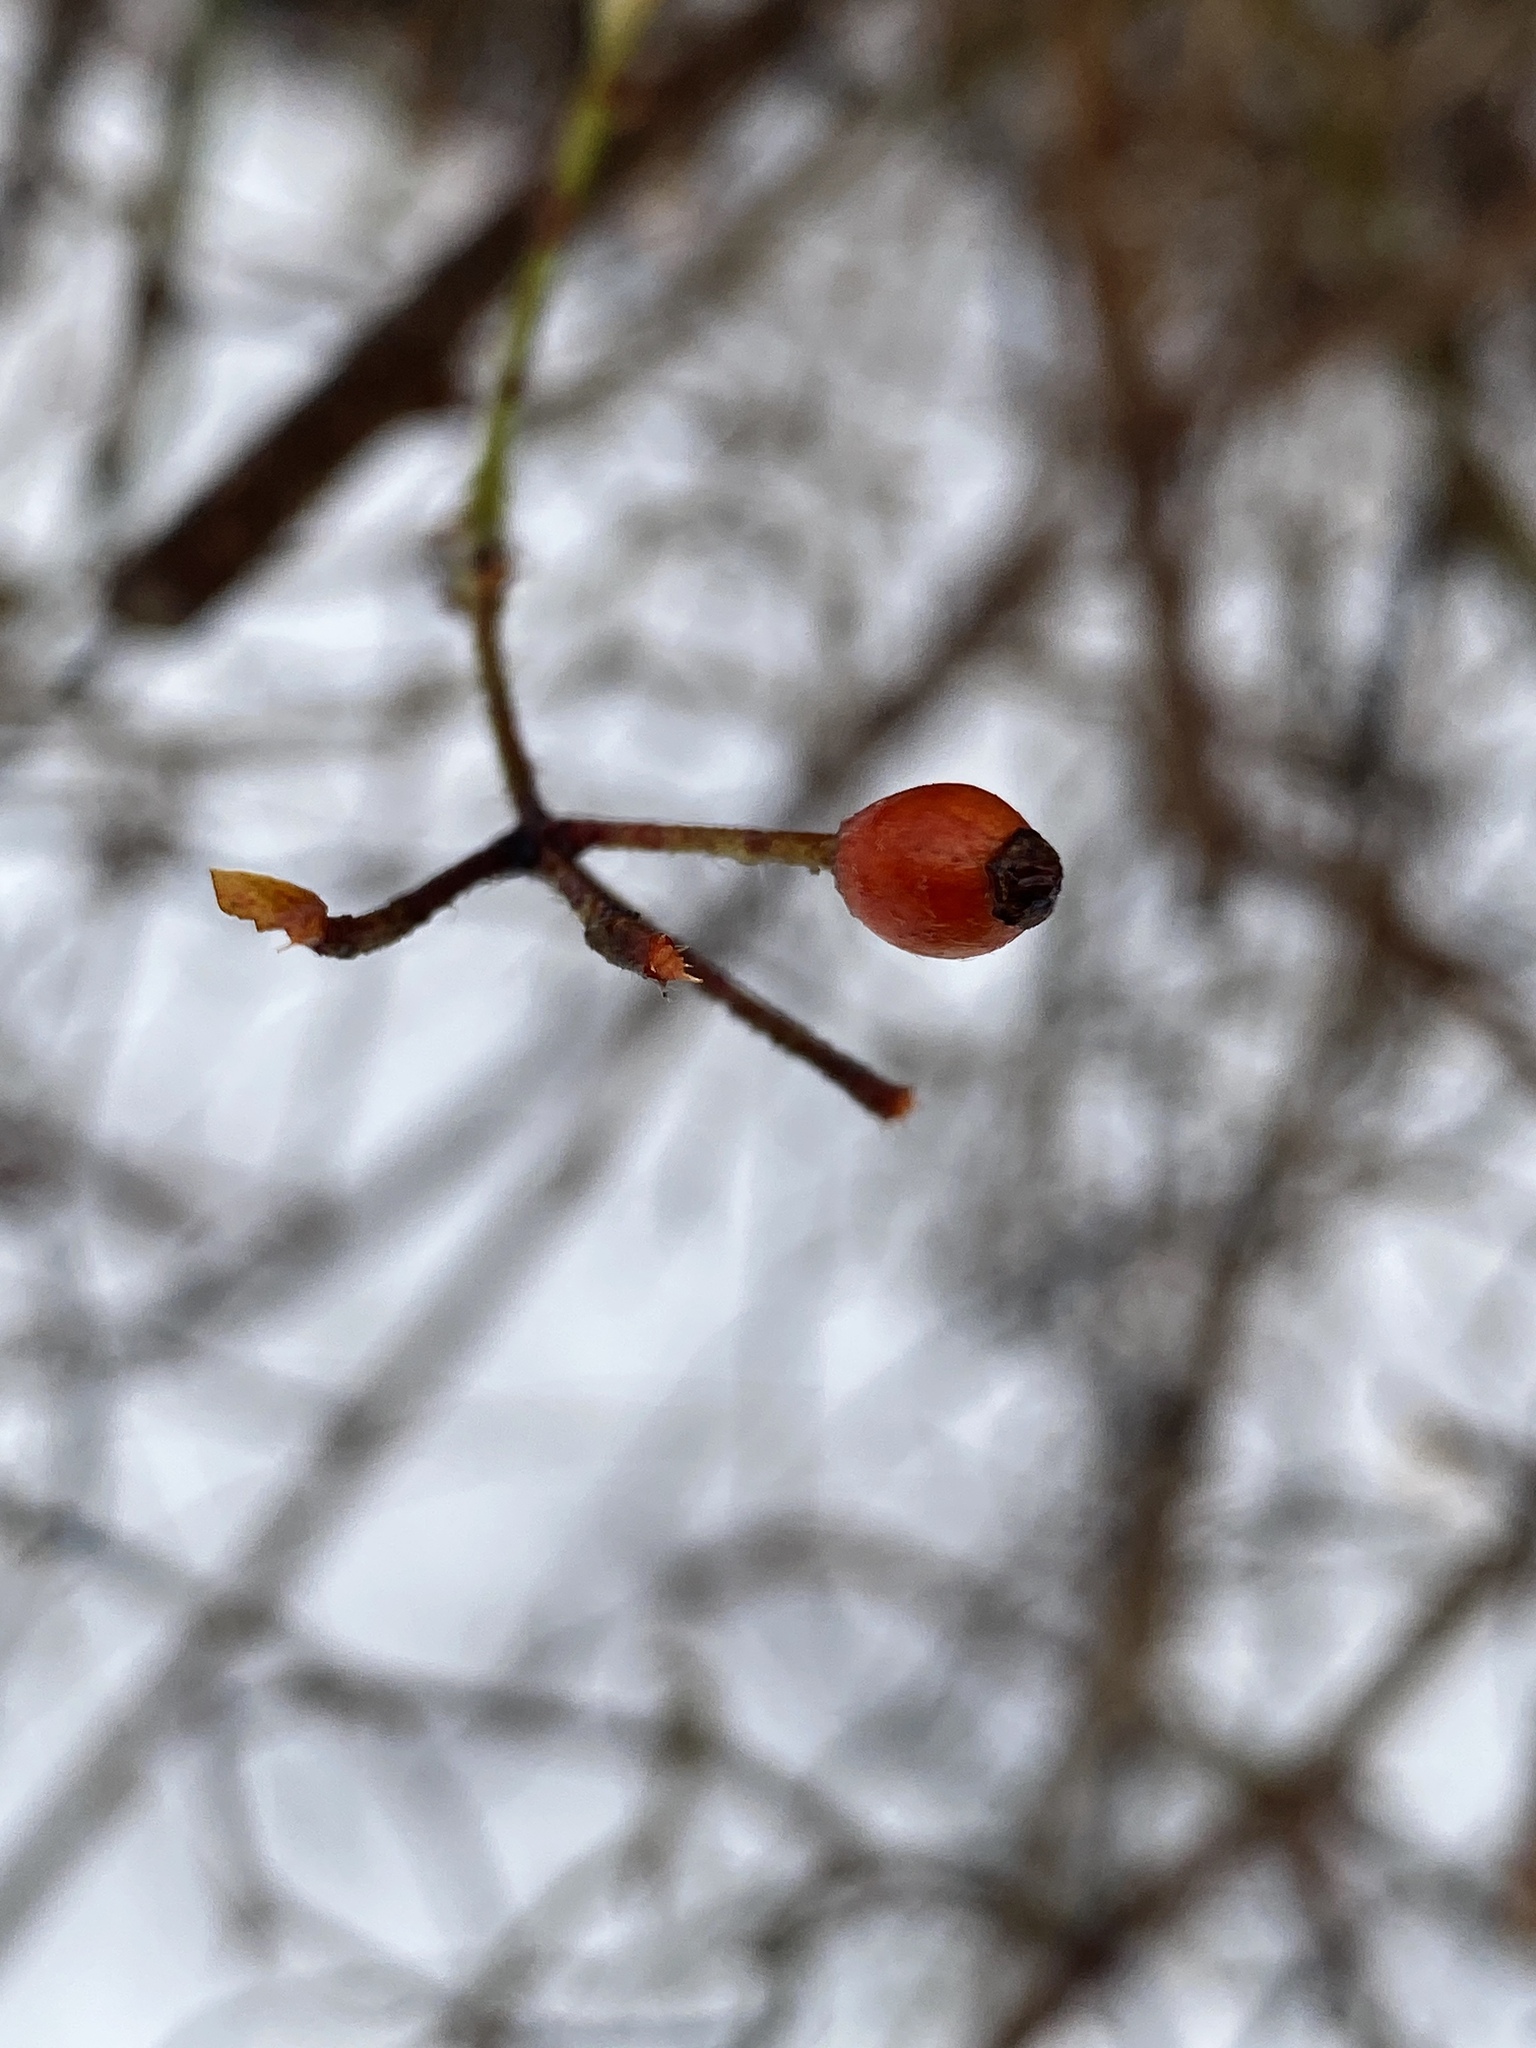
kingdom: Plantae
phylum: Tracheophyta
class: Magnoliopsida
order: Rosales
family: Rosaceae
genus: Rosa
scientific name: Rosa multiflora
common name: Multiflora rose
